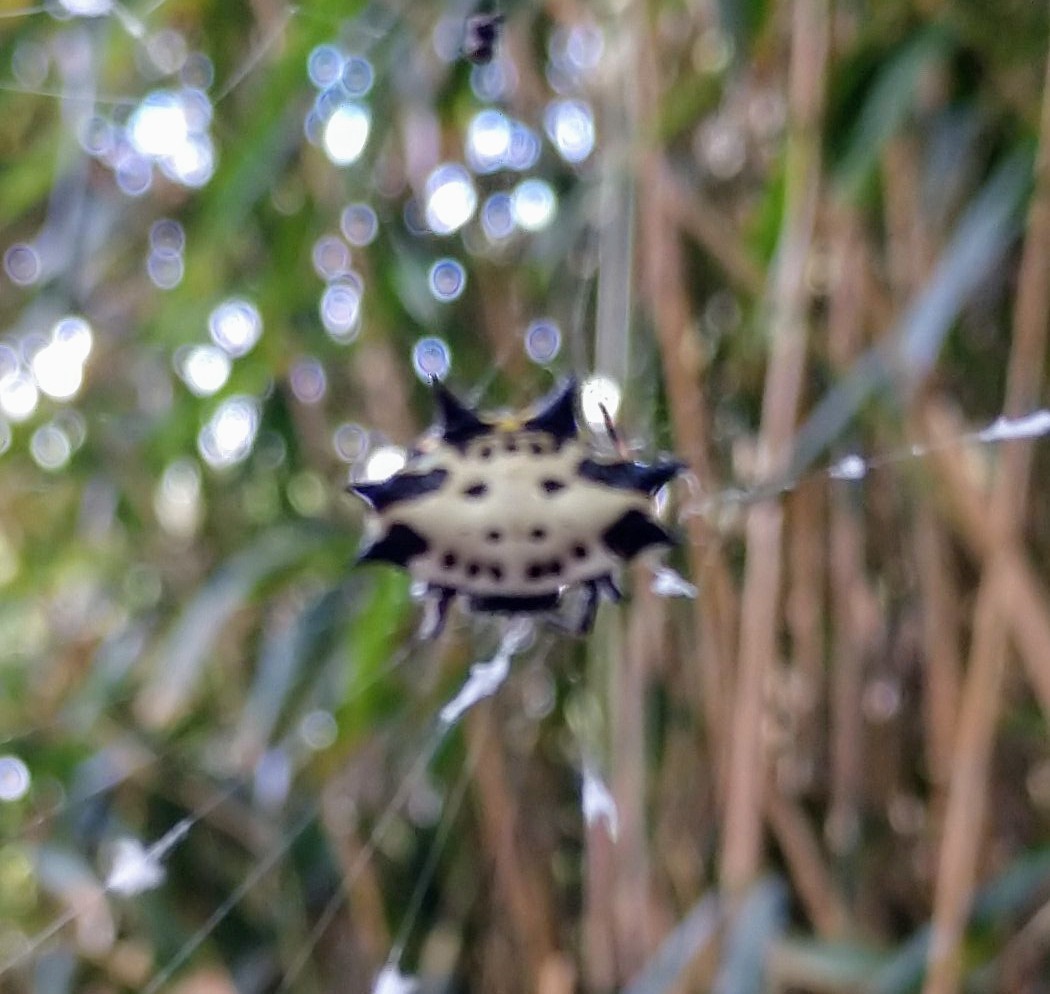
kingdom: Animalia
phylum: Arthropoda
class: Arachnida
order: Araneae
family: Araneidae
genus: Gasteracantha
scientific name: Gasteracantha cancriformis
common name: Orb weavers
